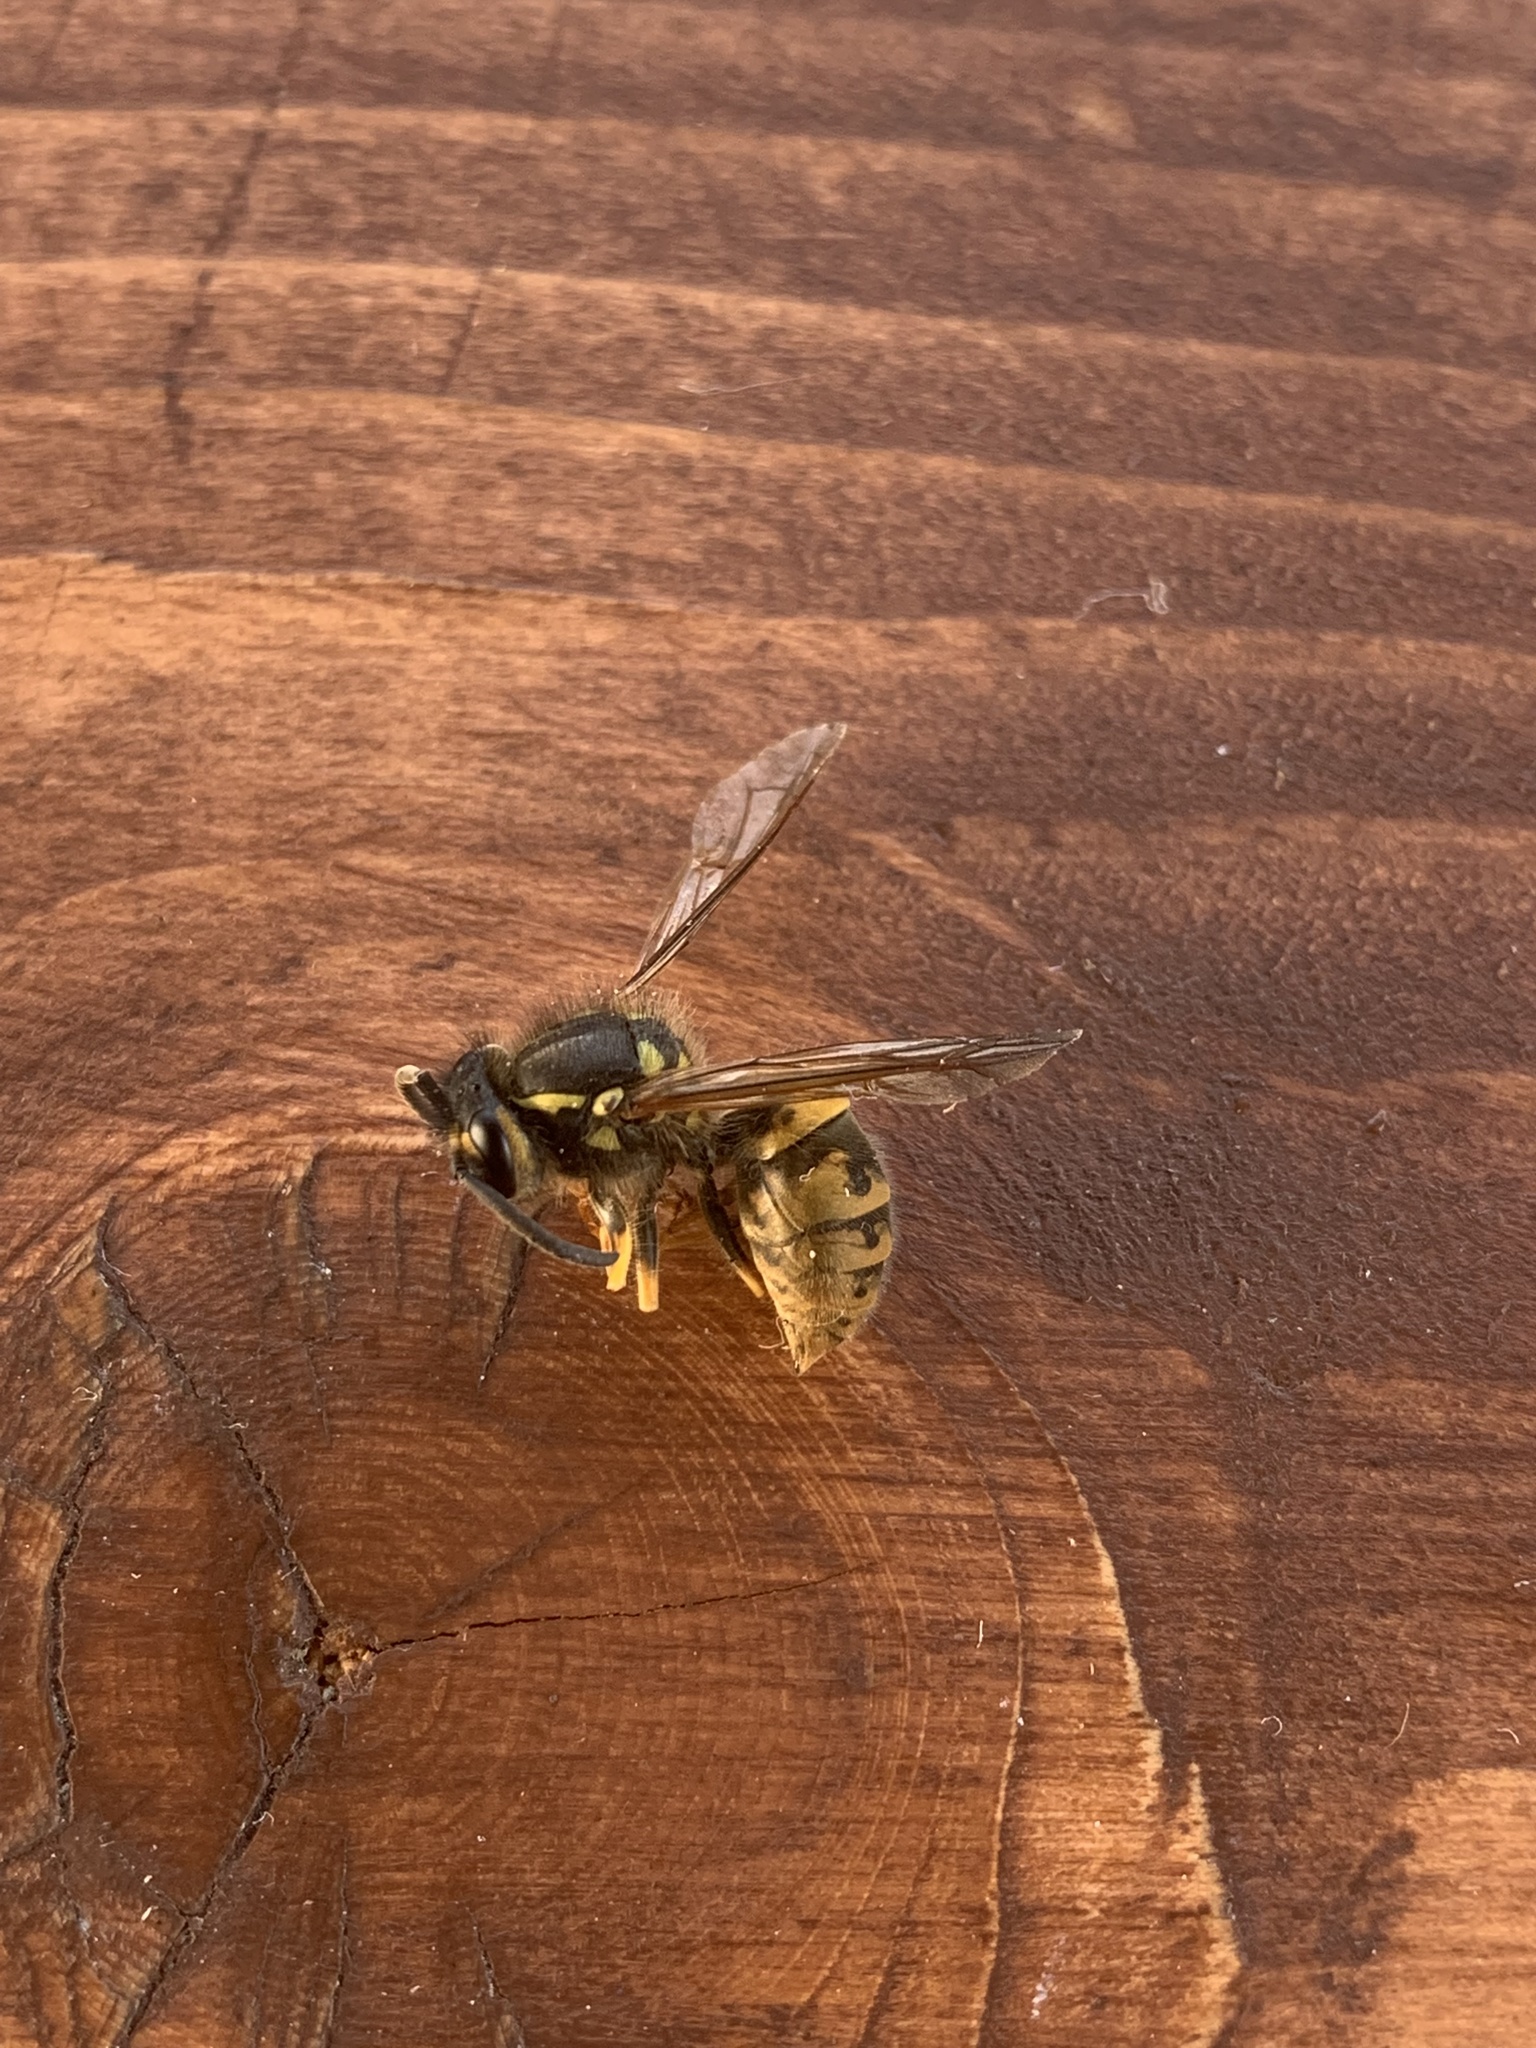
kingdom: Animalia
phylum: Arthropoda
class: Insecta
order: Hymenoptera
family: Vespidae
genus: Vespula
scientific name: Vespula germanica
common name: German wasp
